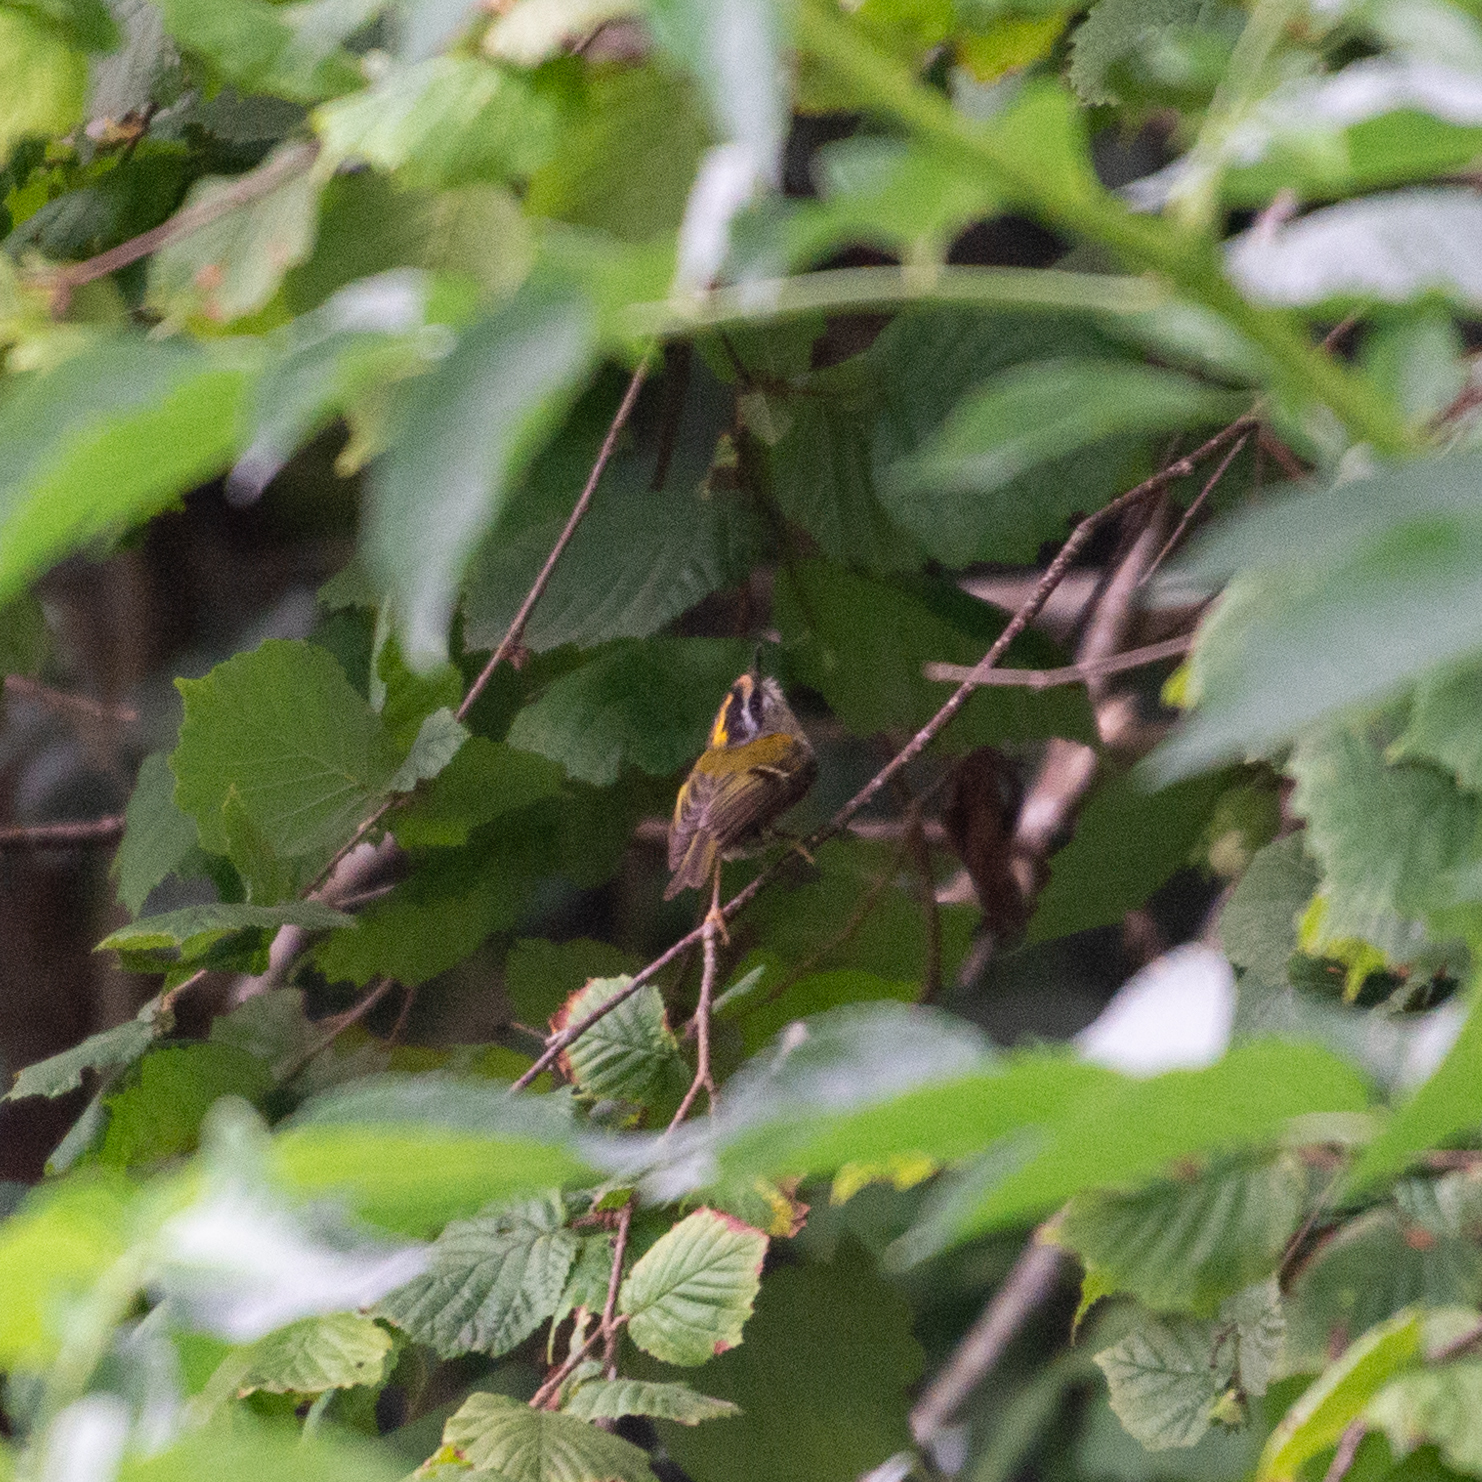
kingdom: Animalia
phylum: Chordata
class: Aves
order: Passeriformes
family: Regulidae
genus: Regulus
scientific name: Regulus ignicapilla
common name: Firecrest
